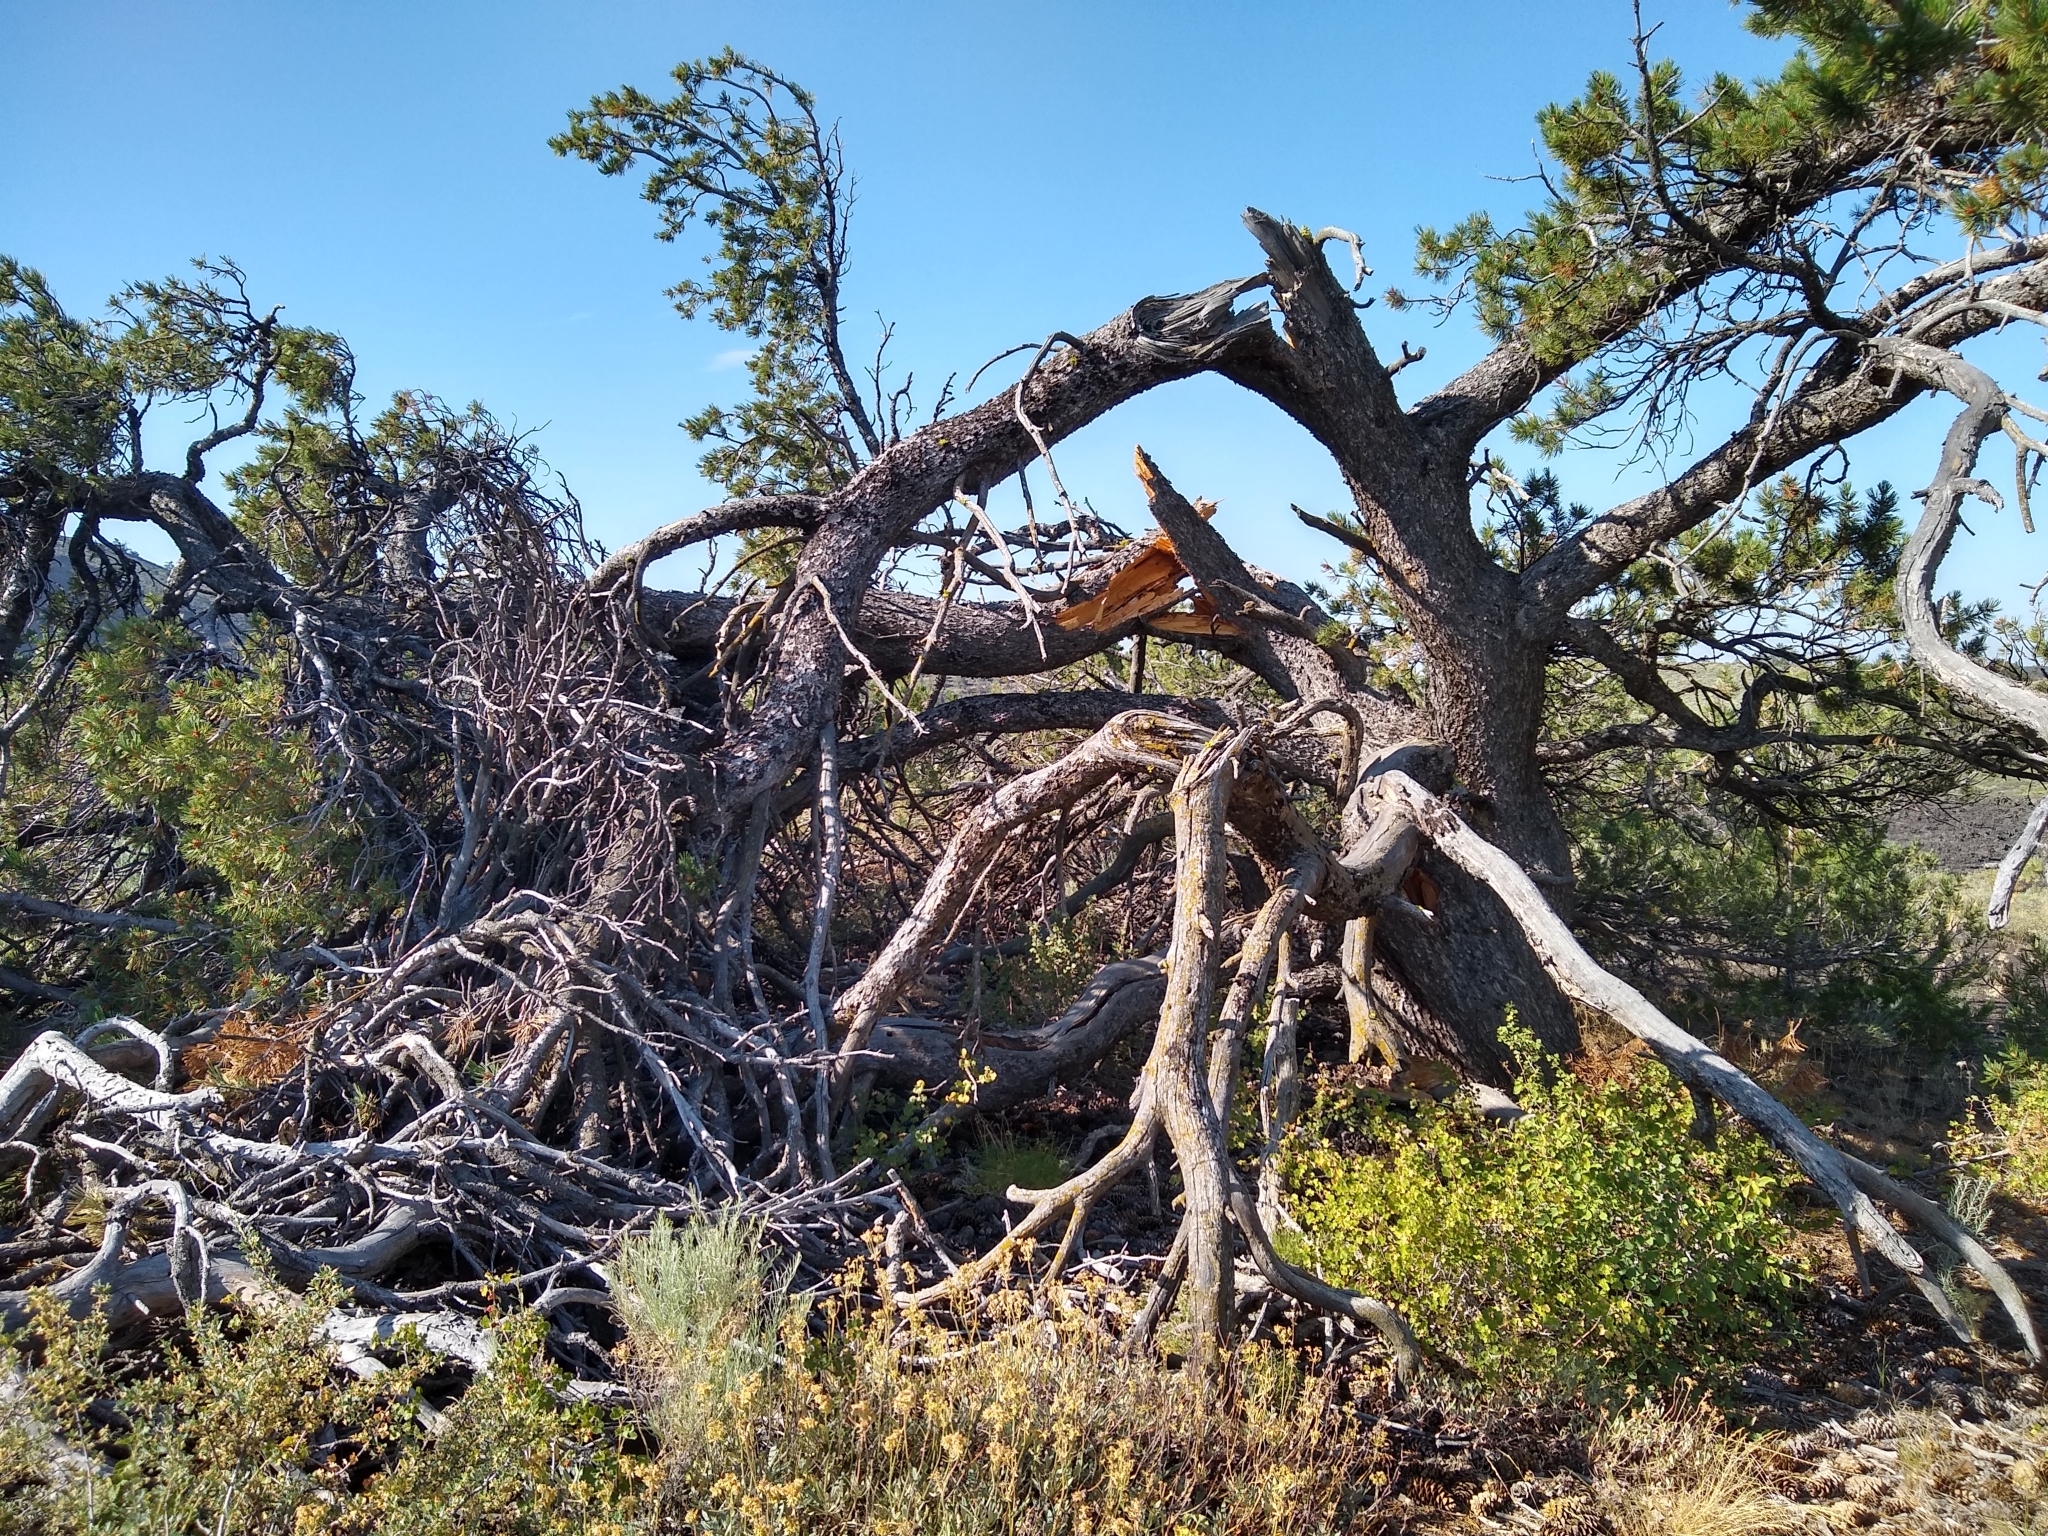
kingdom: Plantae
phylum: Tracheophyta
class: Pinopsida
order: Pinales
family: Pinaceae
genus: Pinus
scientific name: Pinus flexilis
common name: Limber pine
